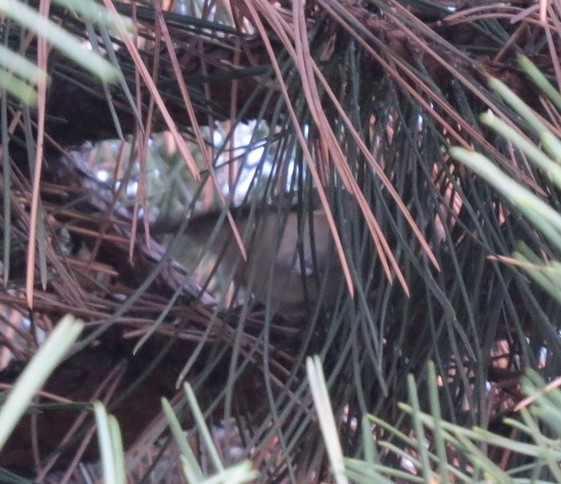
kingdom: Animalia
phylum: Chordata
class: Aves
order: Passeriformes
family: Regulidae
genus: Regulus
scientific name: Regulus regulus
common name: Goldcrest
